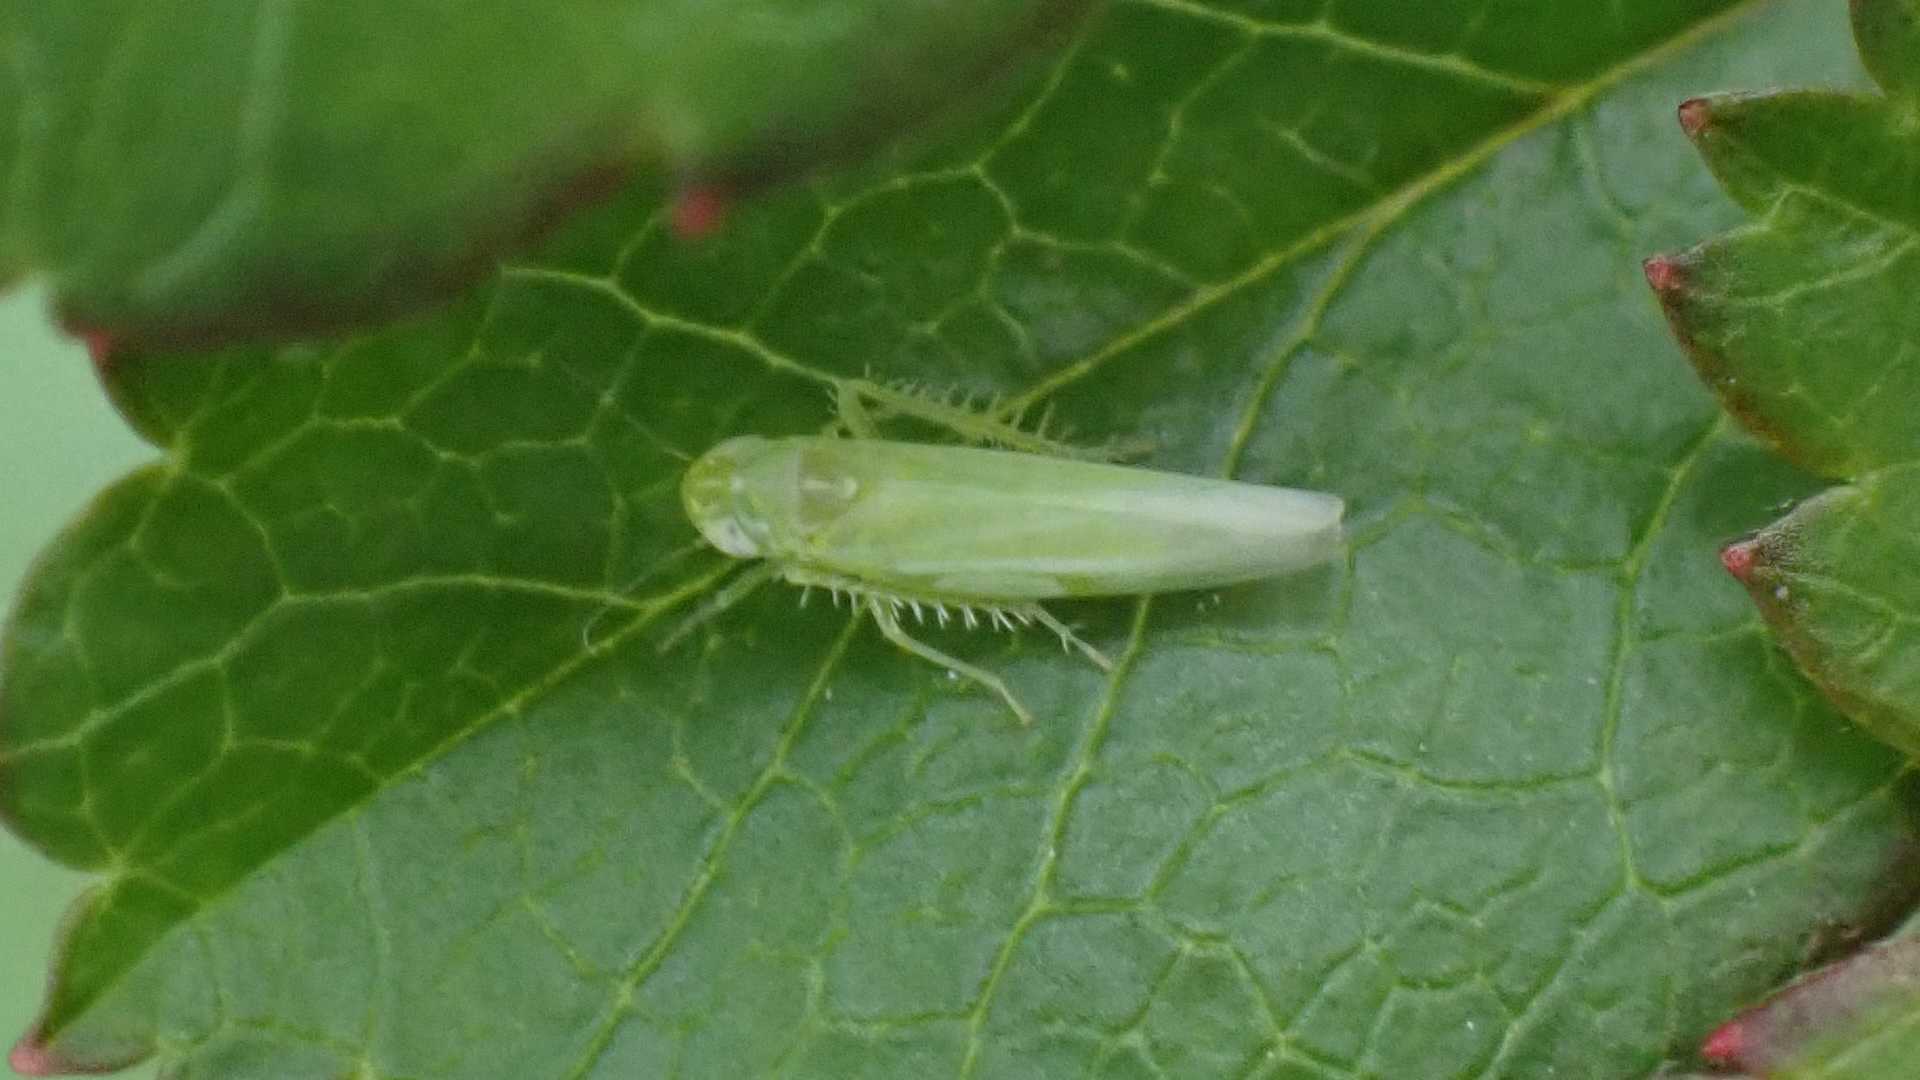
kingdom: Animalia
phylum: Arthropoda
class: Insecta
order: Hemiptera
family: Cicadellidae
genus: Hebata
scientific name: Hebata vitis
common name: The smaller green leafhopper
